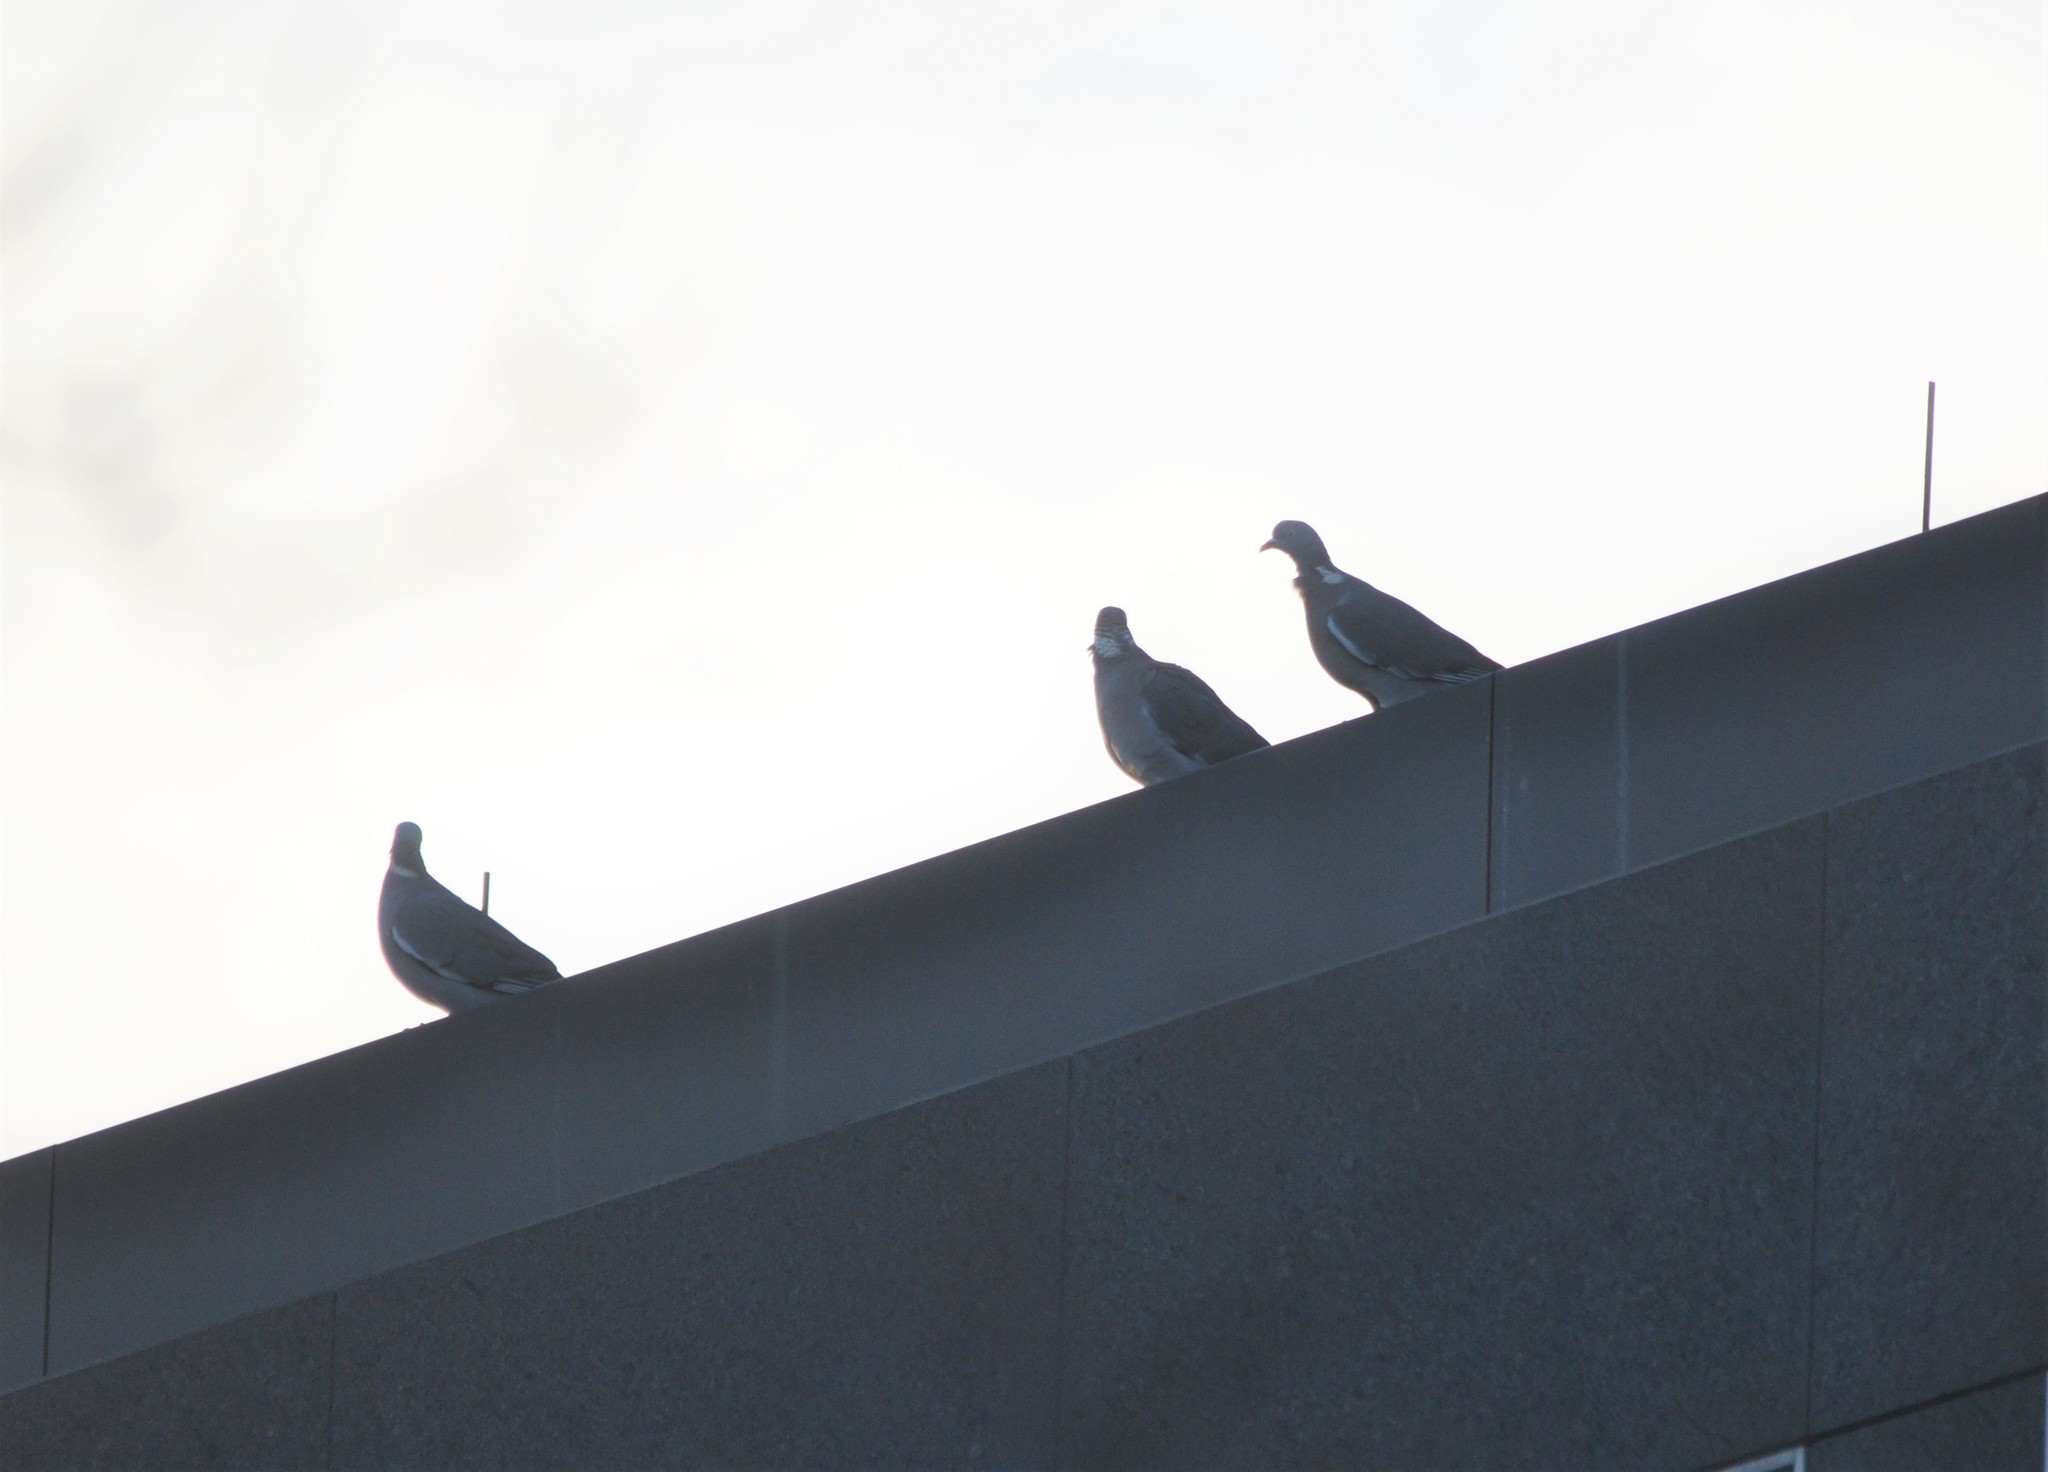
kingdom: Animalia
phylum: Chordata
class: Aves
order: Columbiformes
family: Columbidae
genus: Columba
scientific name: Columba palumbus
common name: Common wood pigeon
